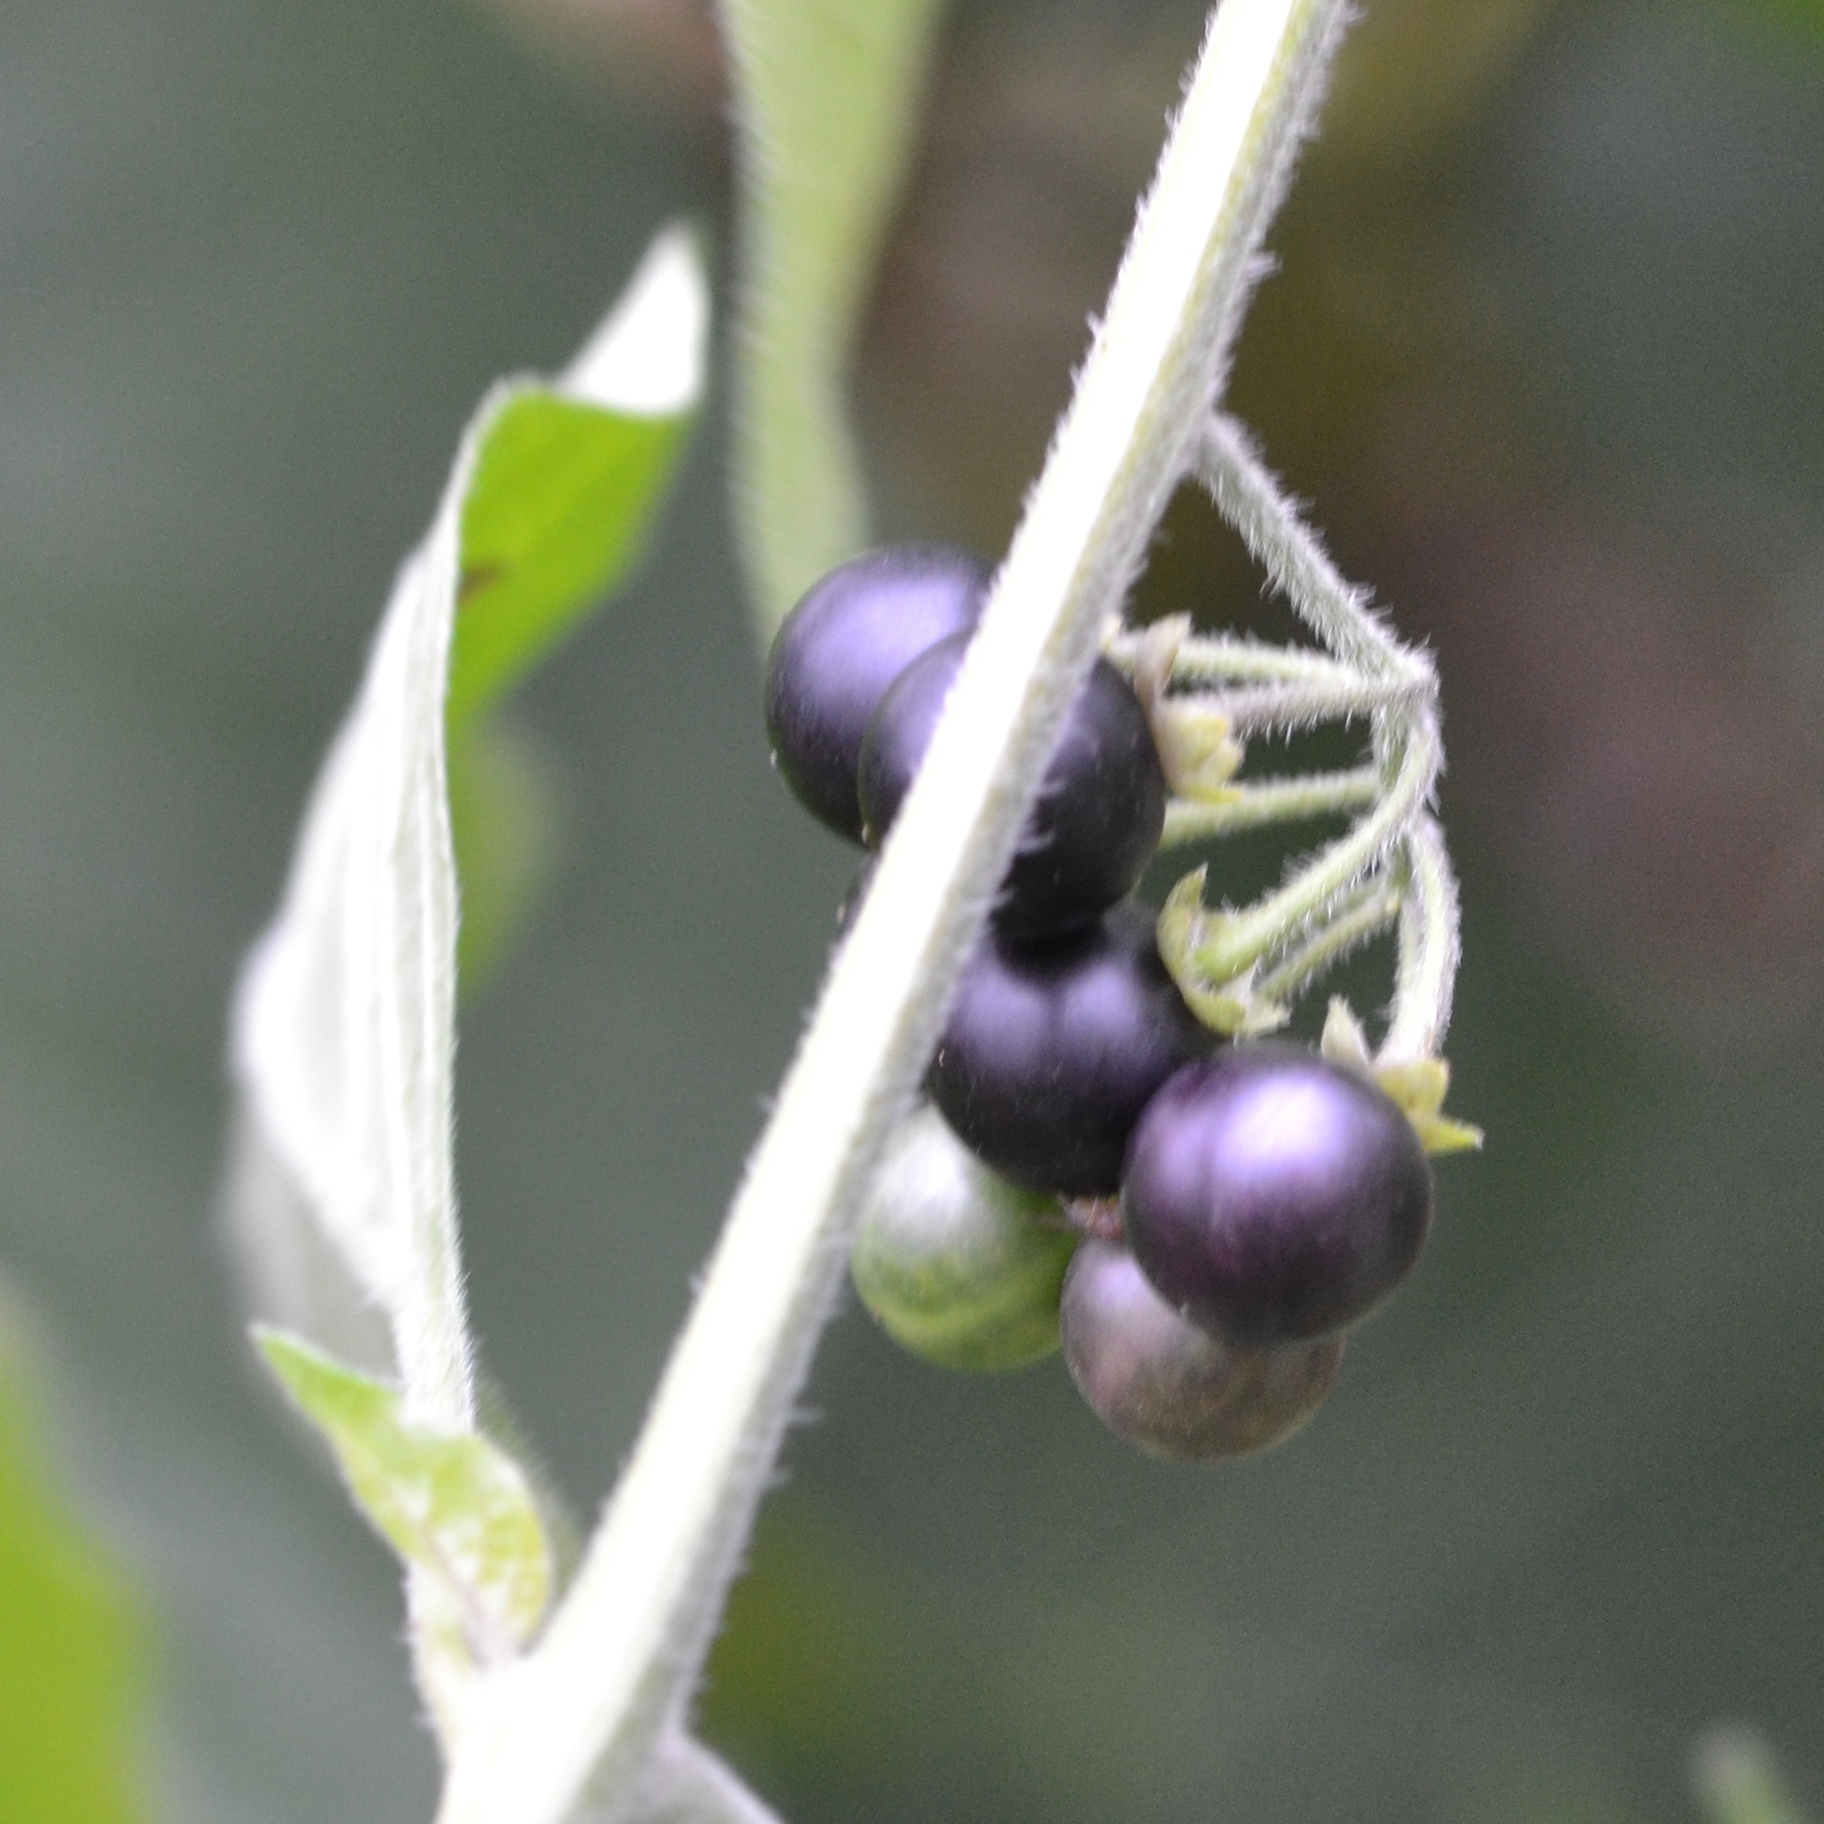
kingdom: Plantae
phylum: Tracheophyta
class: Magnoliopsida
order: Solanales
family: Solanaceae
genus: Solanum
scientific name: Solanum nigrum
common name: Black nightshade
